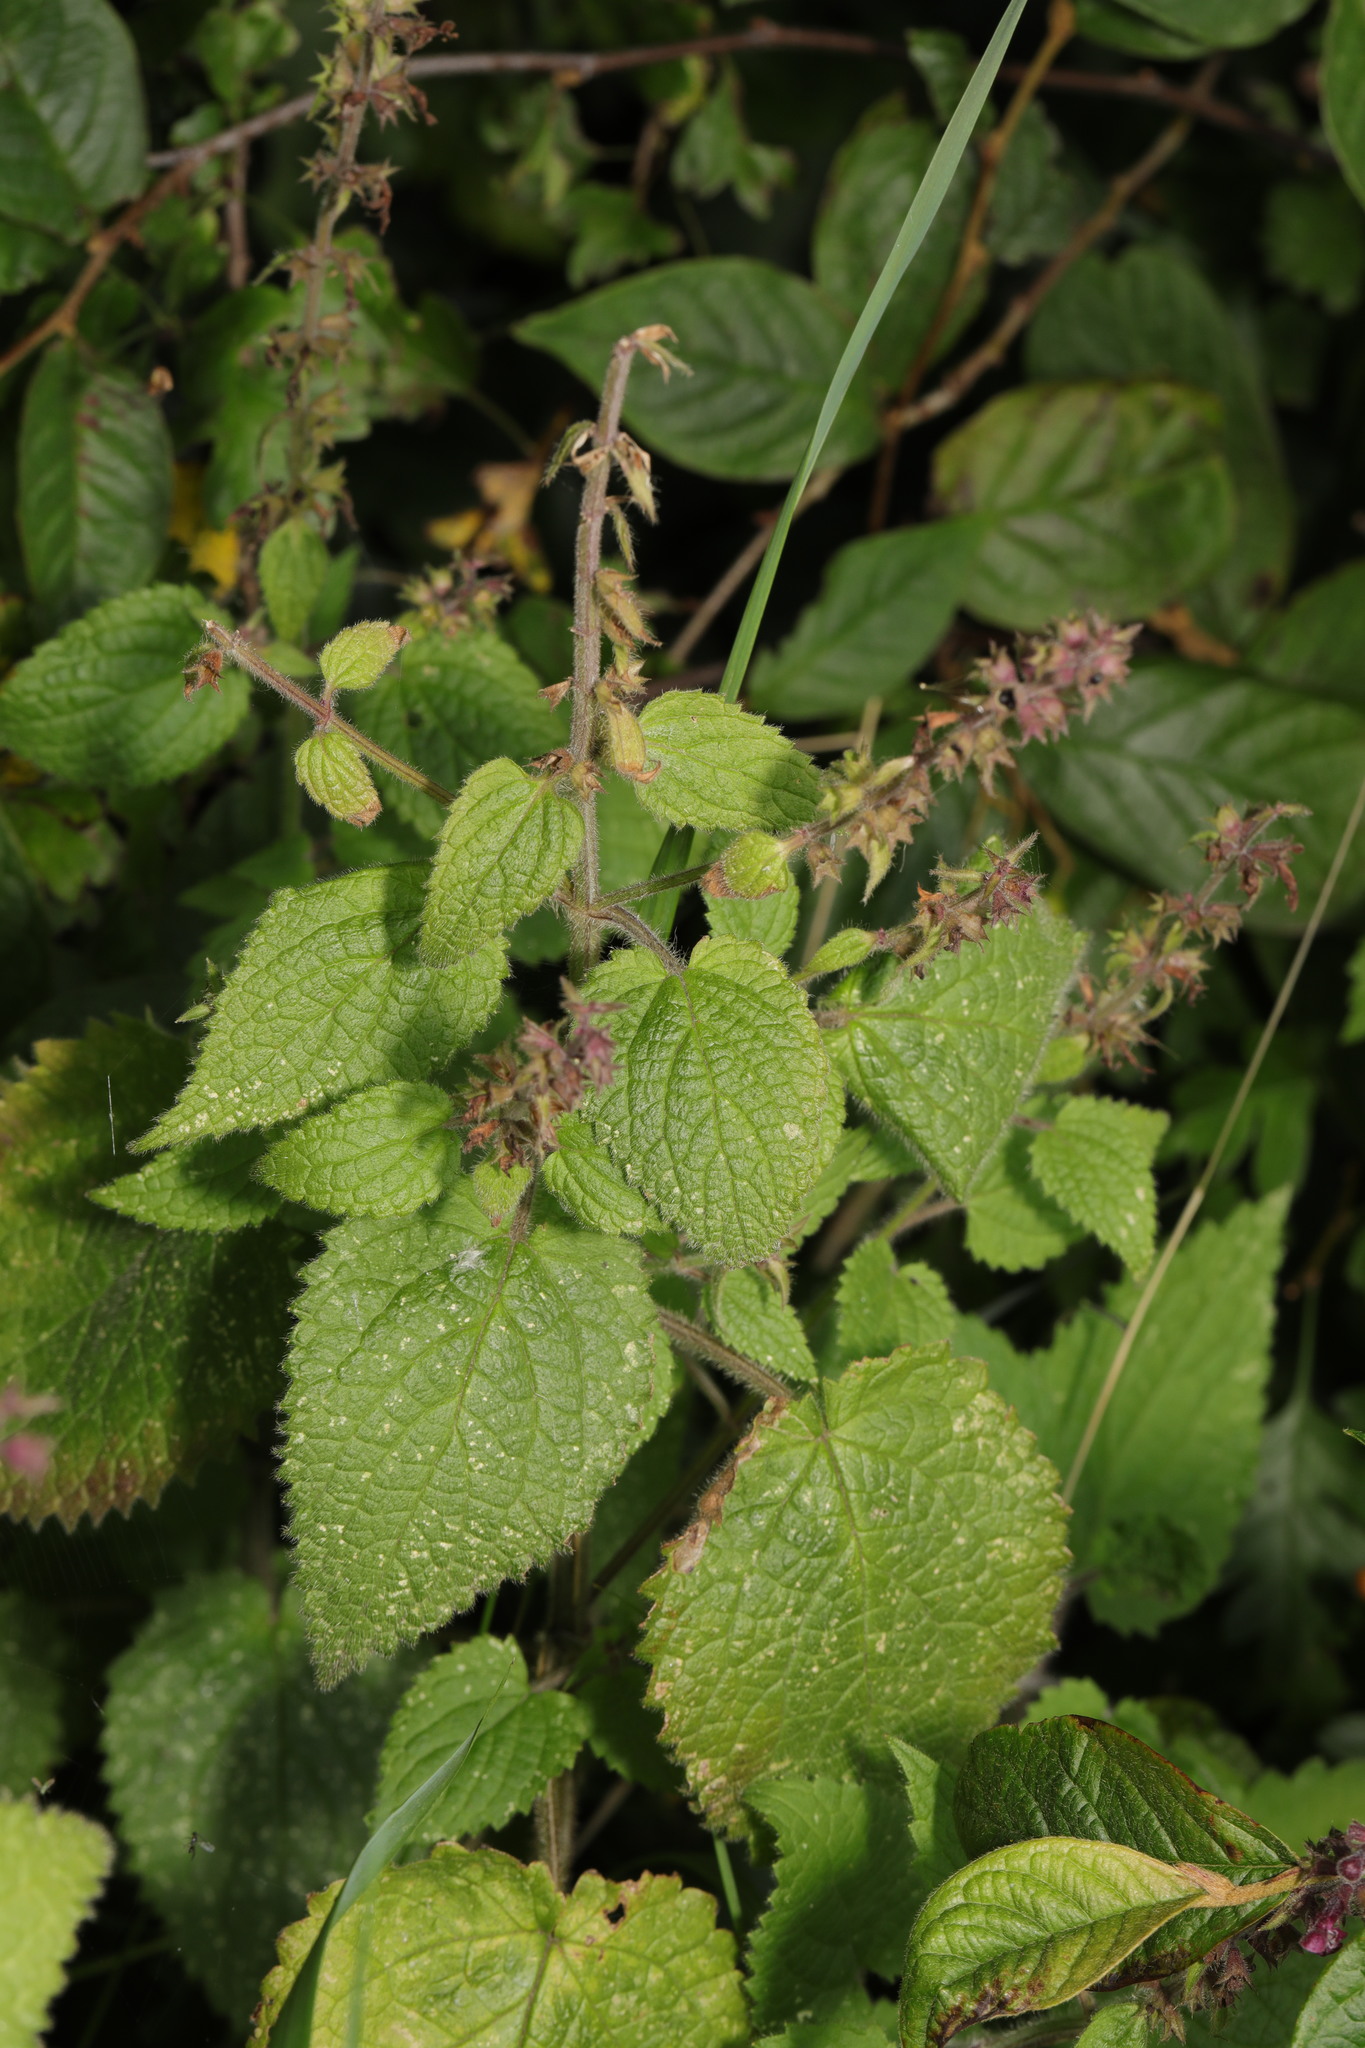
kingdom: Plantae
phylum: Tracheophyta
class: Magnoliopsida
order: Lamiales
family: Lamiaceae
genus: Stachys
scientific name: Stachys sylvatica
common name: Hedge woundwort
